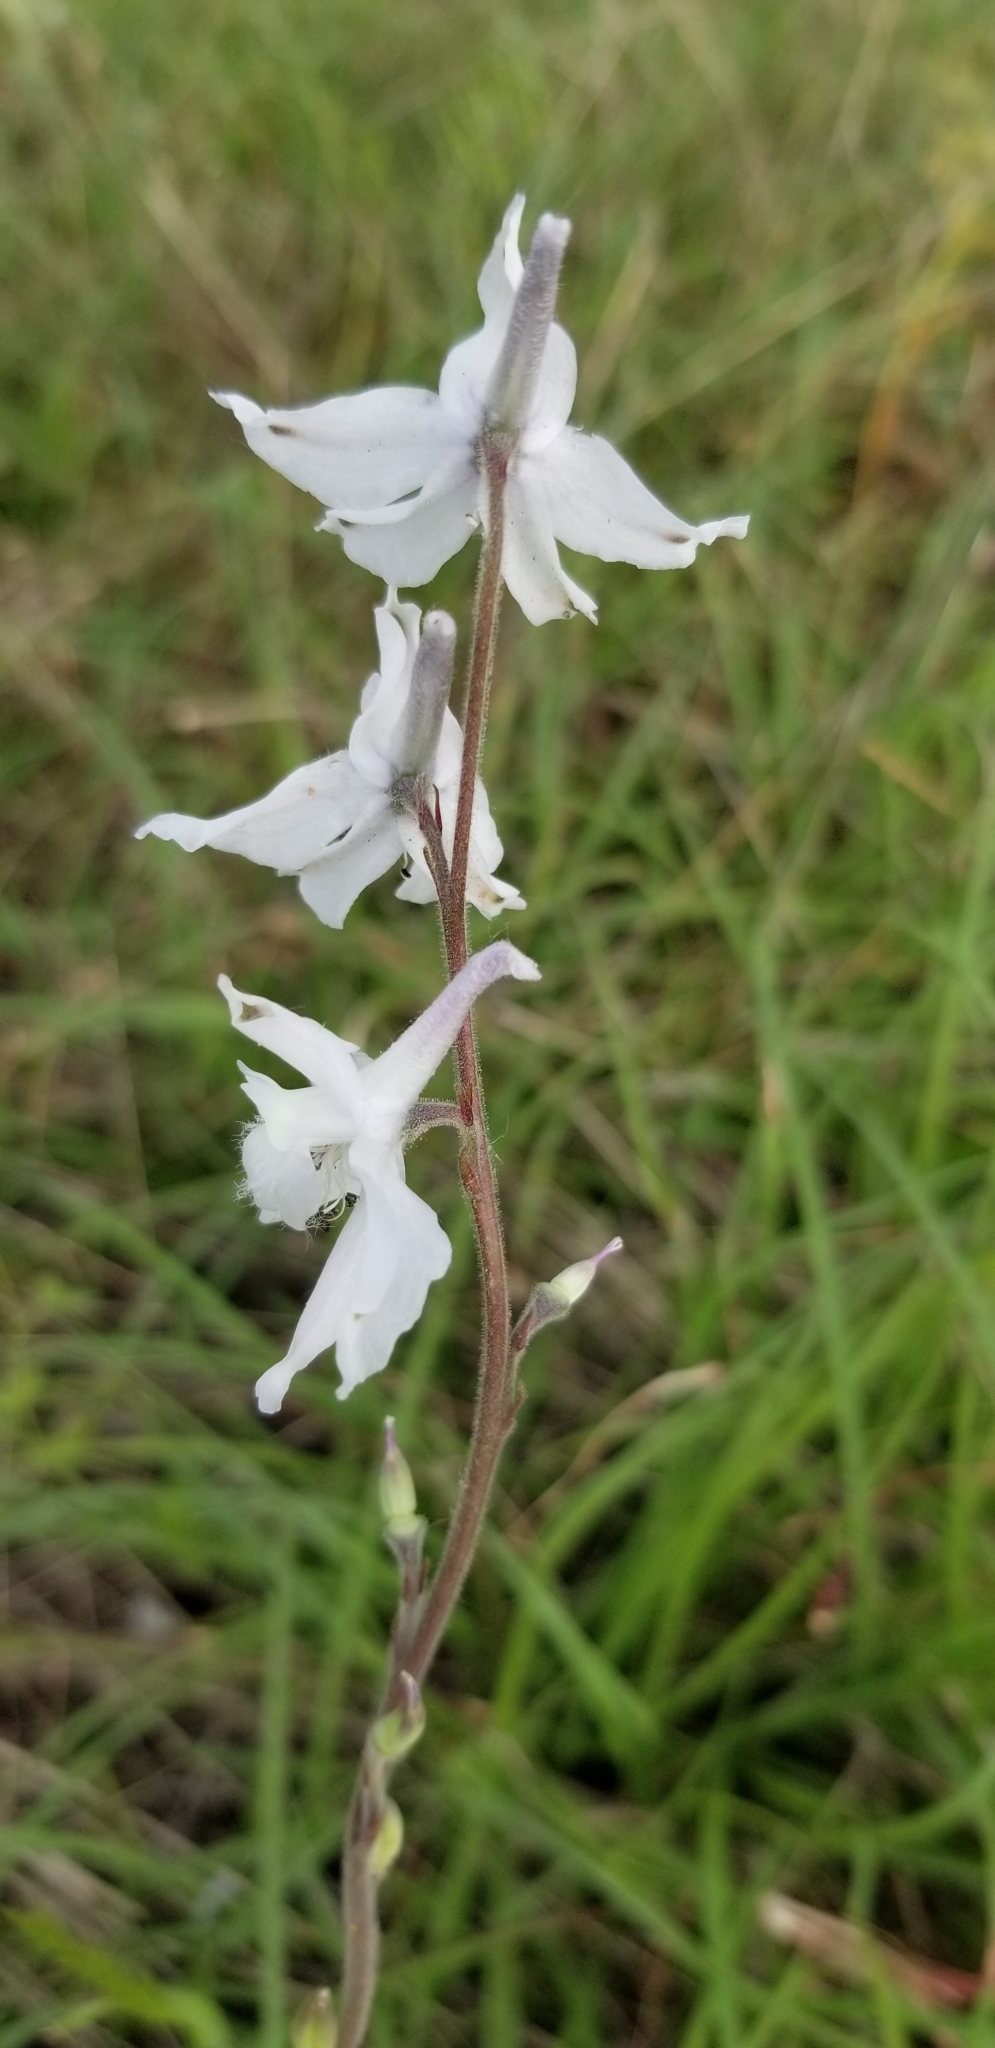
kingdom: Plantae
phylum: Tracheophyta
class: Magnoliopsida
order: Ranunculales
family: Ranunculaceae
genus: Delphinium
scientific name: Delphinium carolinianum
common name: Carolina larkspur
